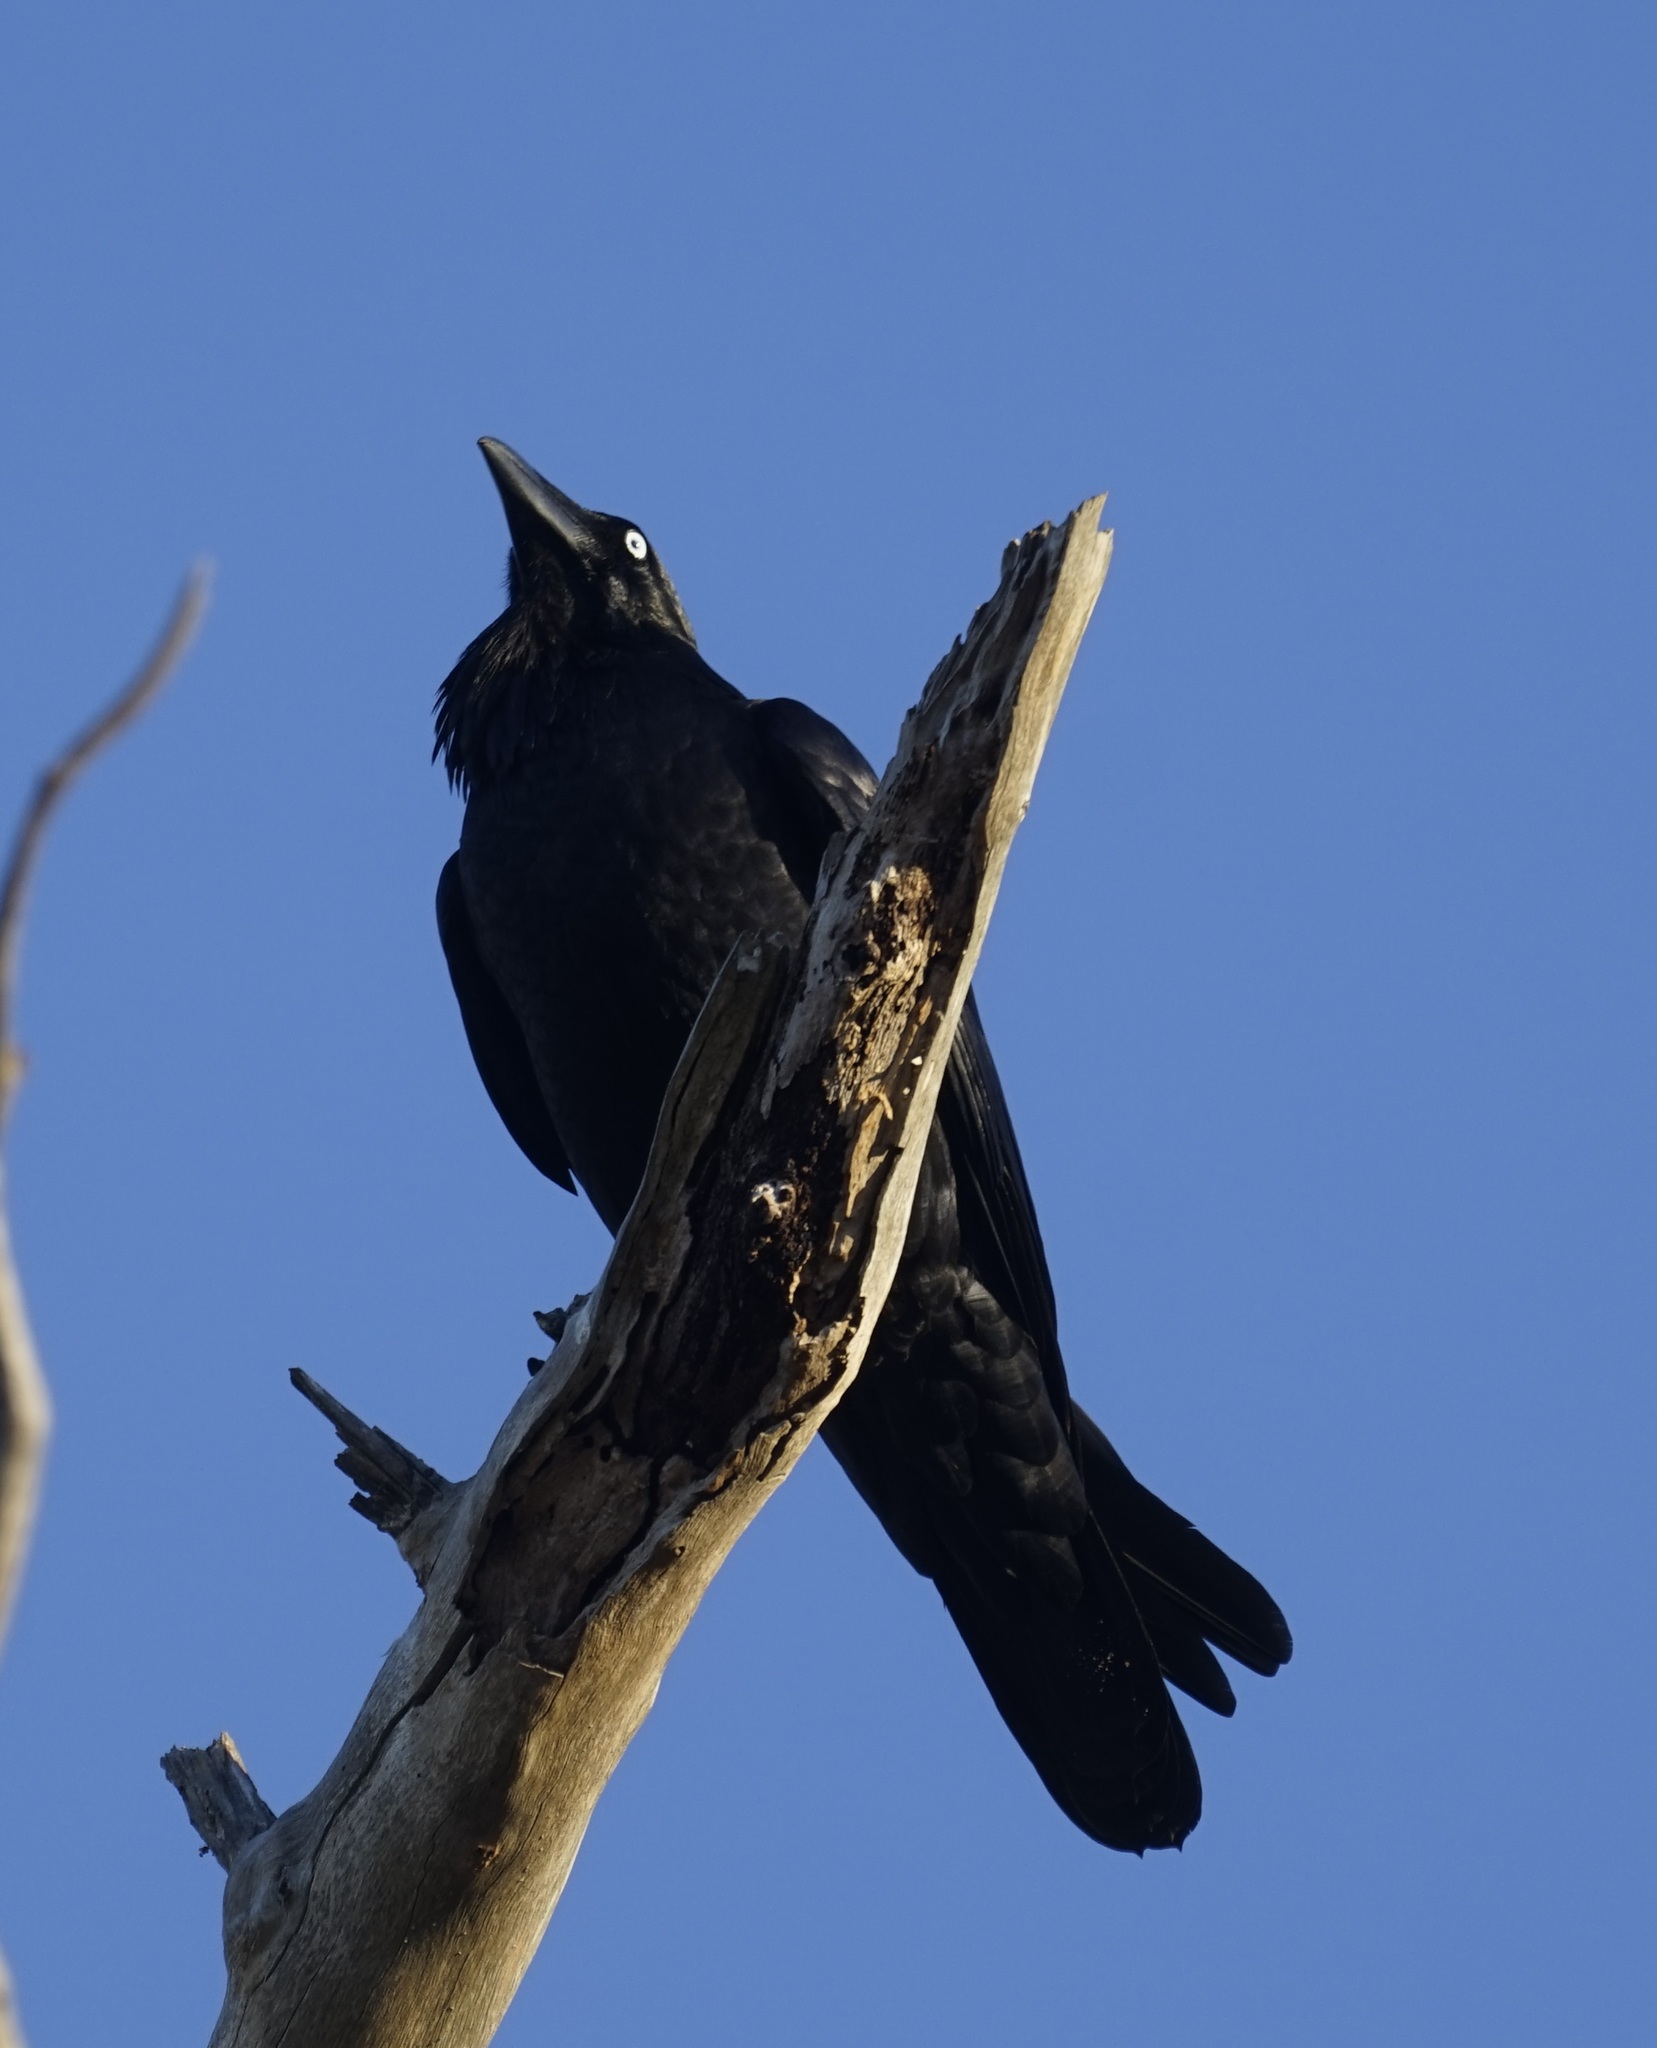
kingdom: Animalia
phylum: Chordata
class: Aves
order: Passeriformes
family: Corvidae
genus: Corvus
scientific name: Corvus coronoides
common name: Australian raven
